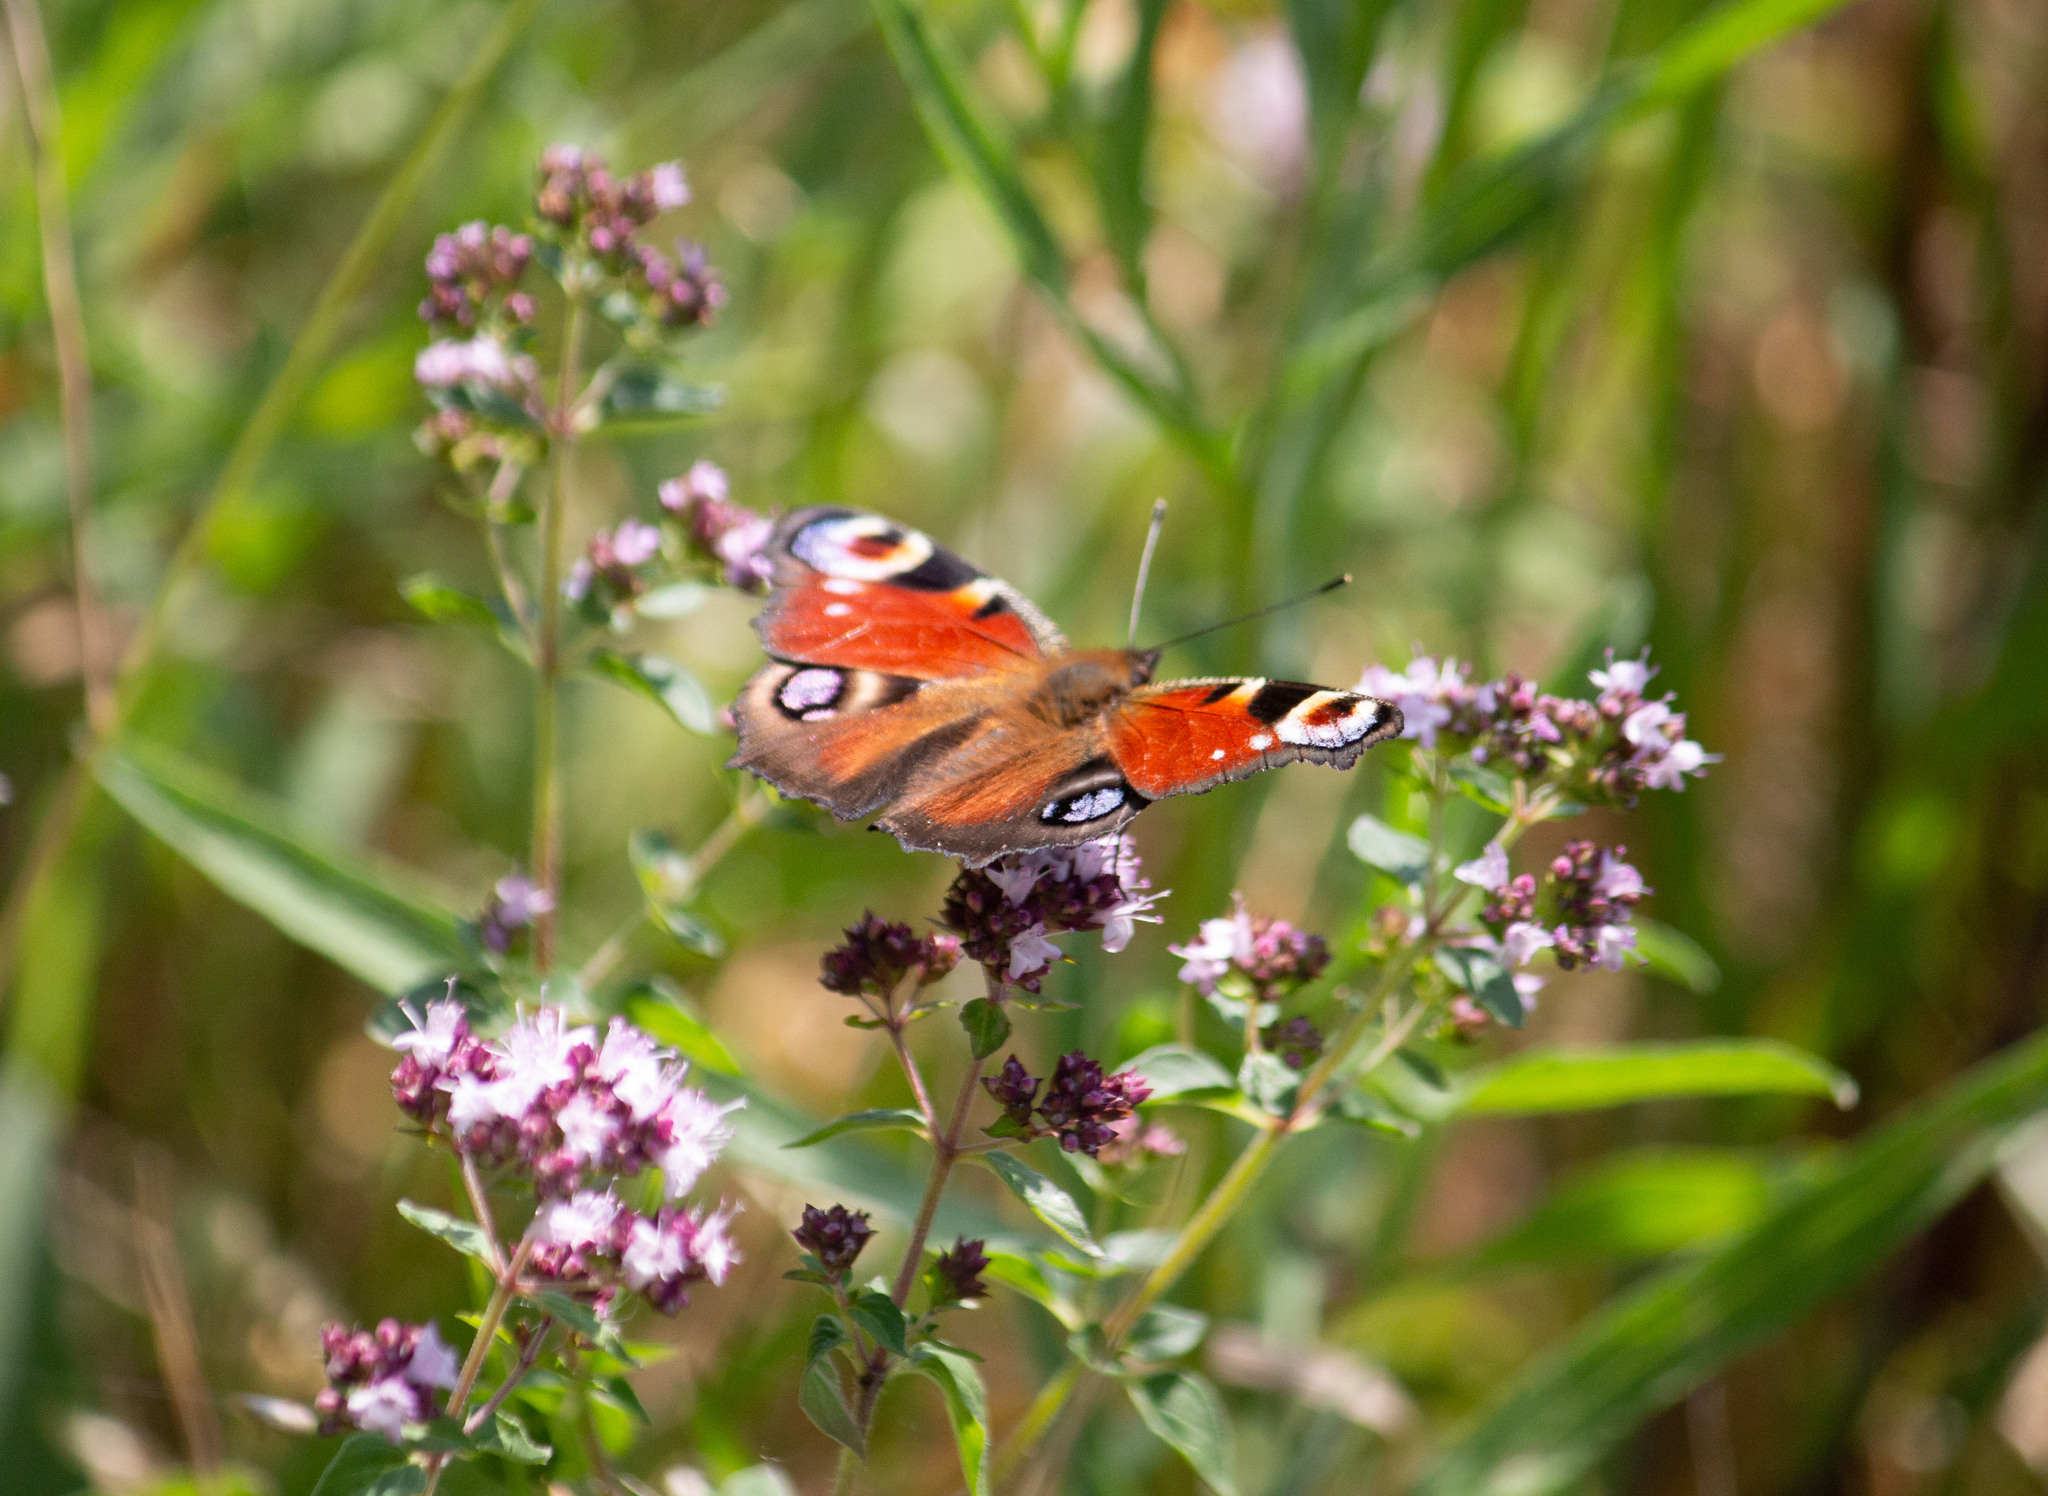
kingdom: Animalia
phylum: Arthropoda
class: Insecta
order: Lepidoptera
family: Nymphalidae
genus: Aglais
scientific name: Aglais io
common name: Peacock
